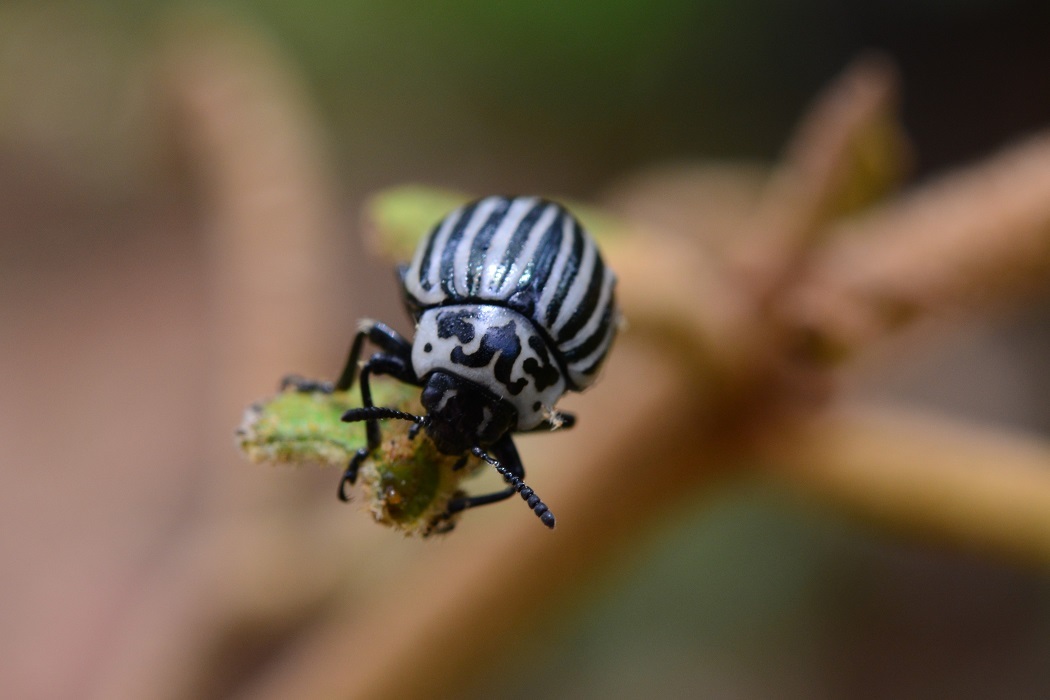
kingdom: Animalia
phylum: Arthropoda
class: Insecta
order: Coleoptera
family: Chrysomelidae
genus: Leptinotarsa
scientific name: Leptinotarsa
